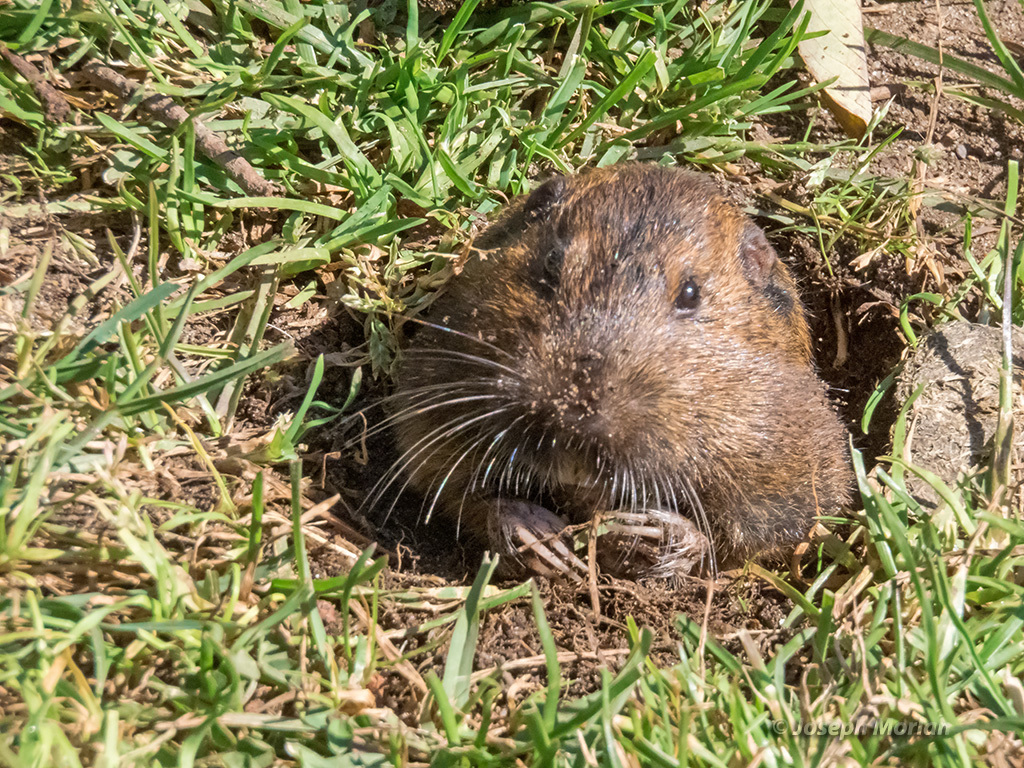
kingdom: Animalia
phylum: Chordata
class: Mammalia
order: Rodentia
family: Geomyidae
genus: Thomomys
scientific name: Thomomys bottae
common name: Botta's pocket gopher
